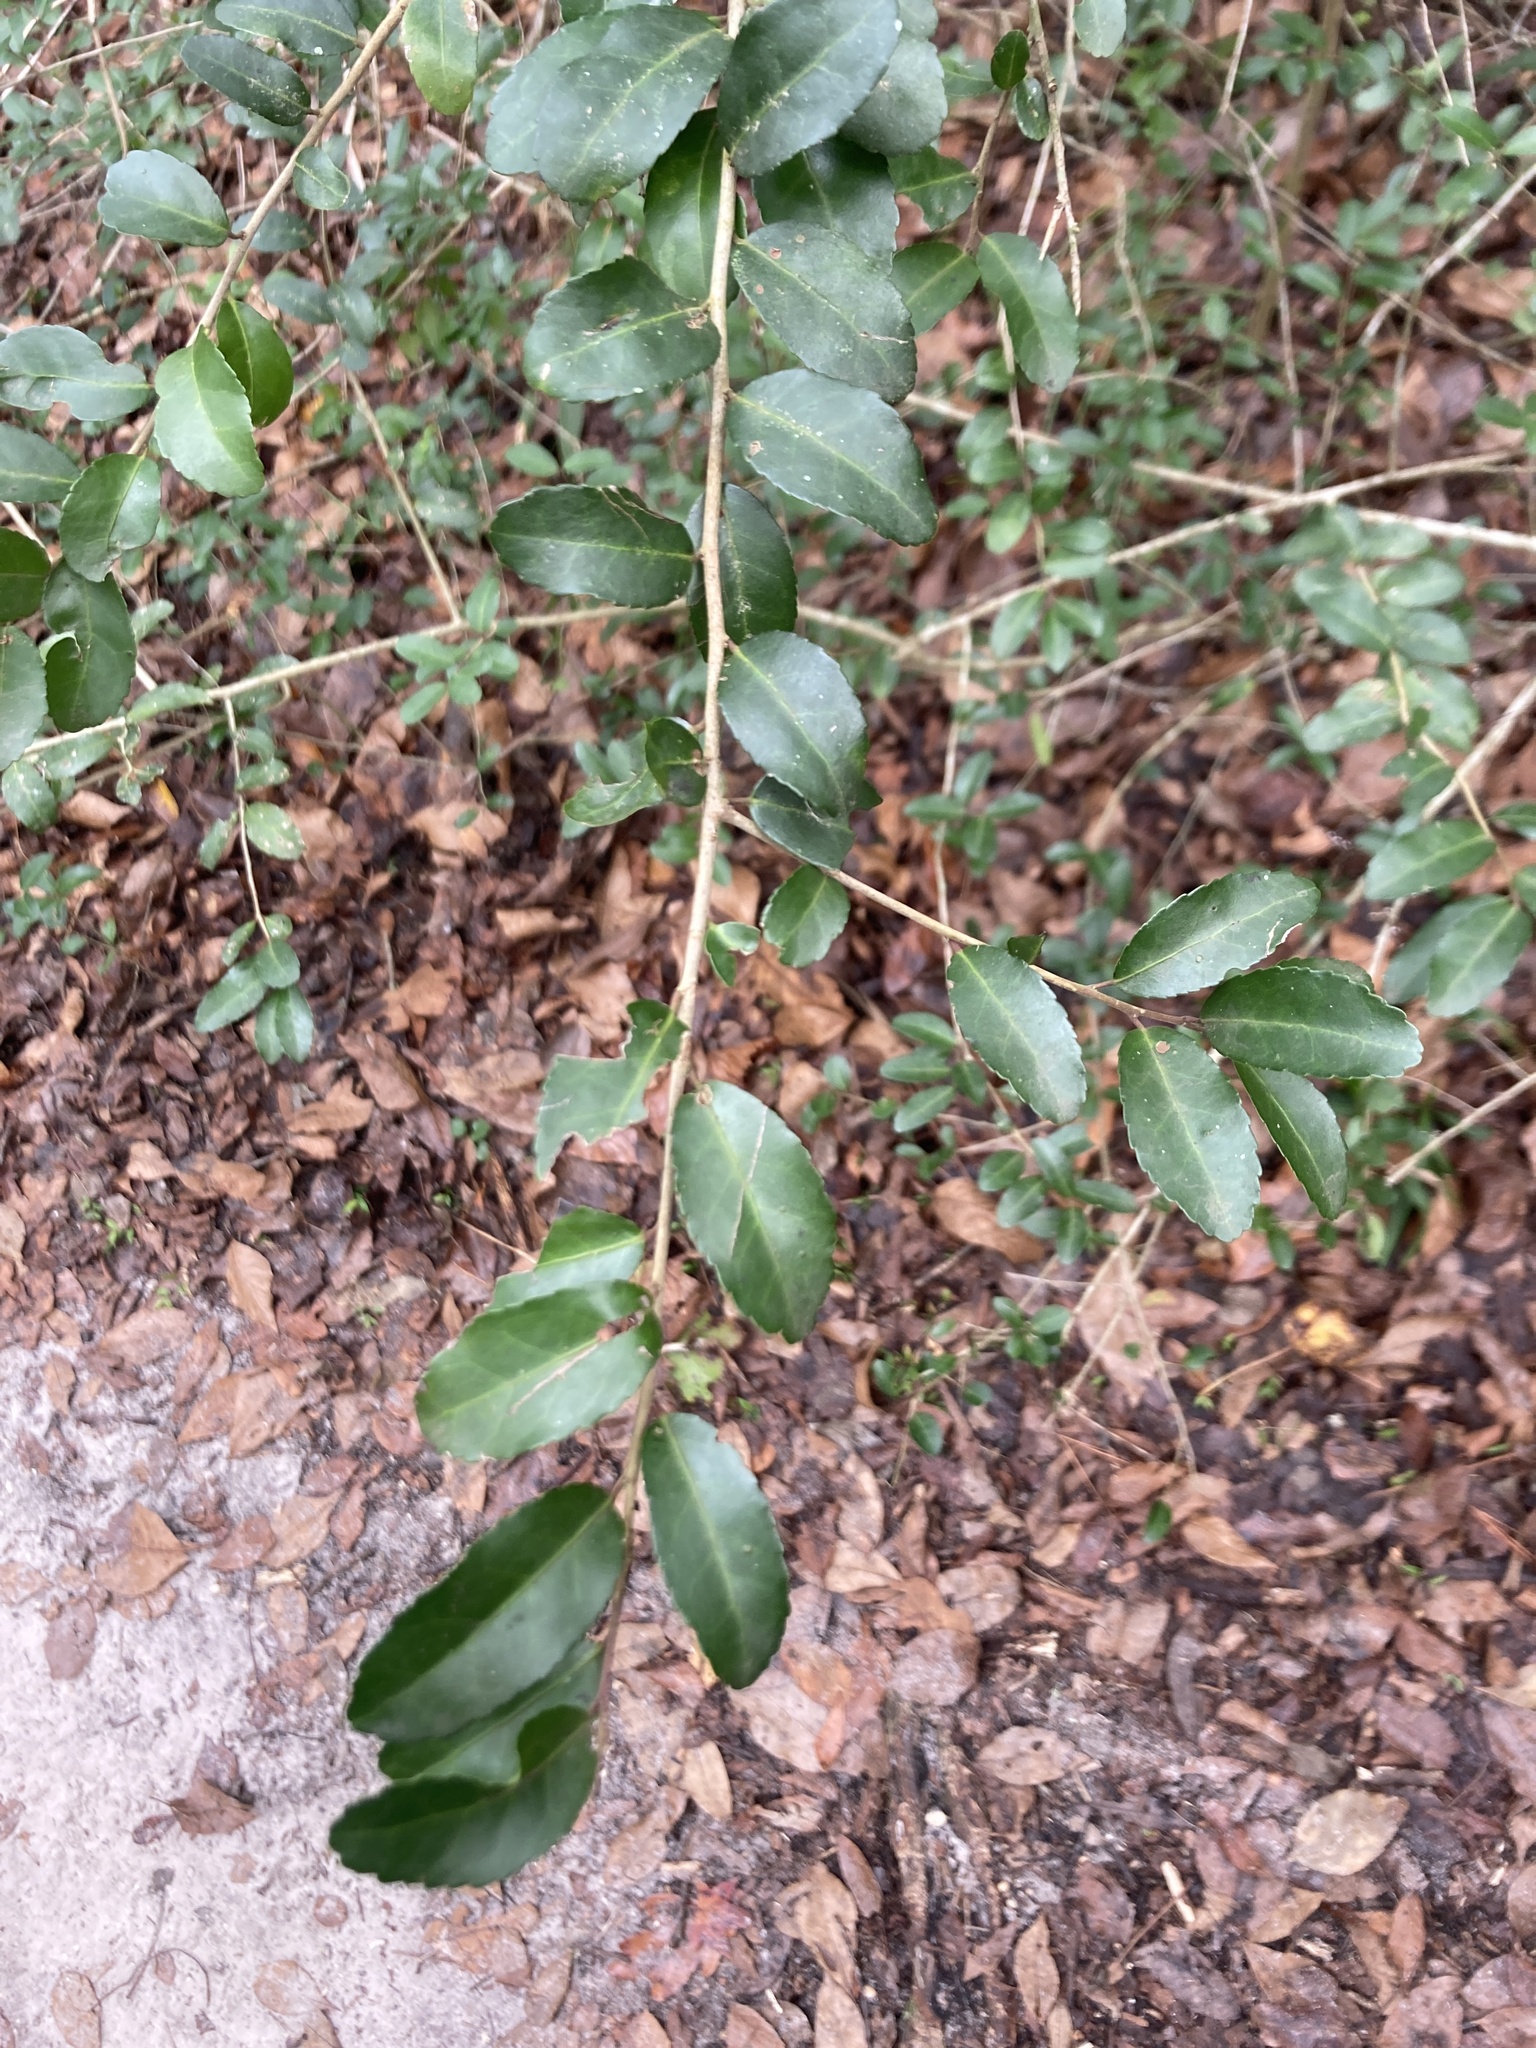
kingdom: Plantae
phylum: Tracheophyta
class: Magnoliopsida
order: Aquifoliales
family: Aquifoliaceae
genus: Ilex
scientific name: Ilex vomitoria
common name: Yaupon holly
